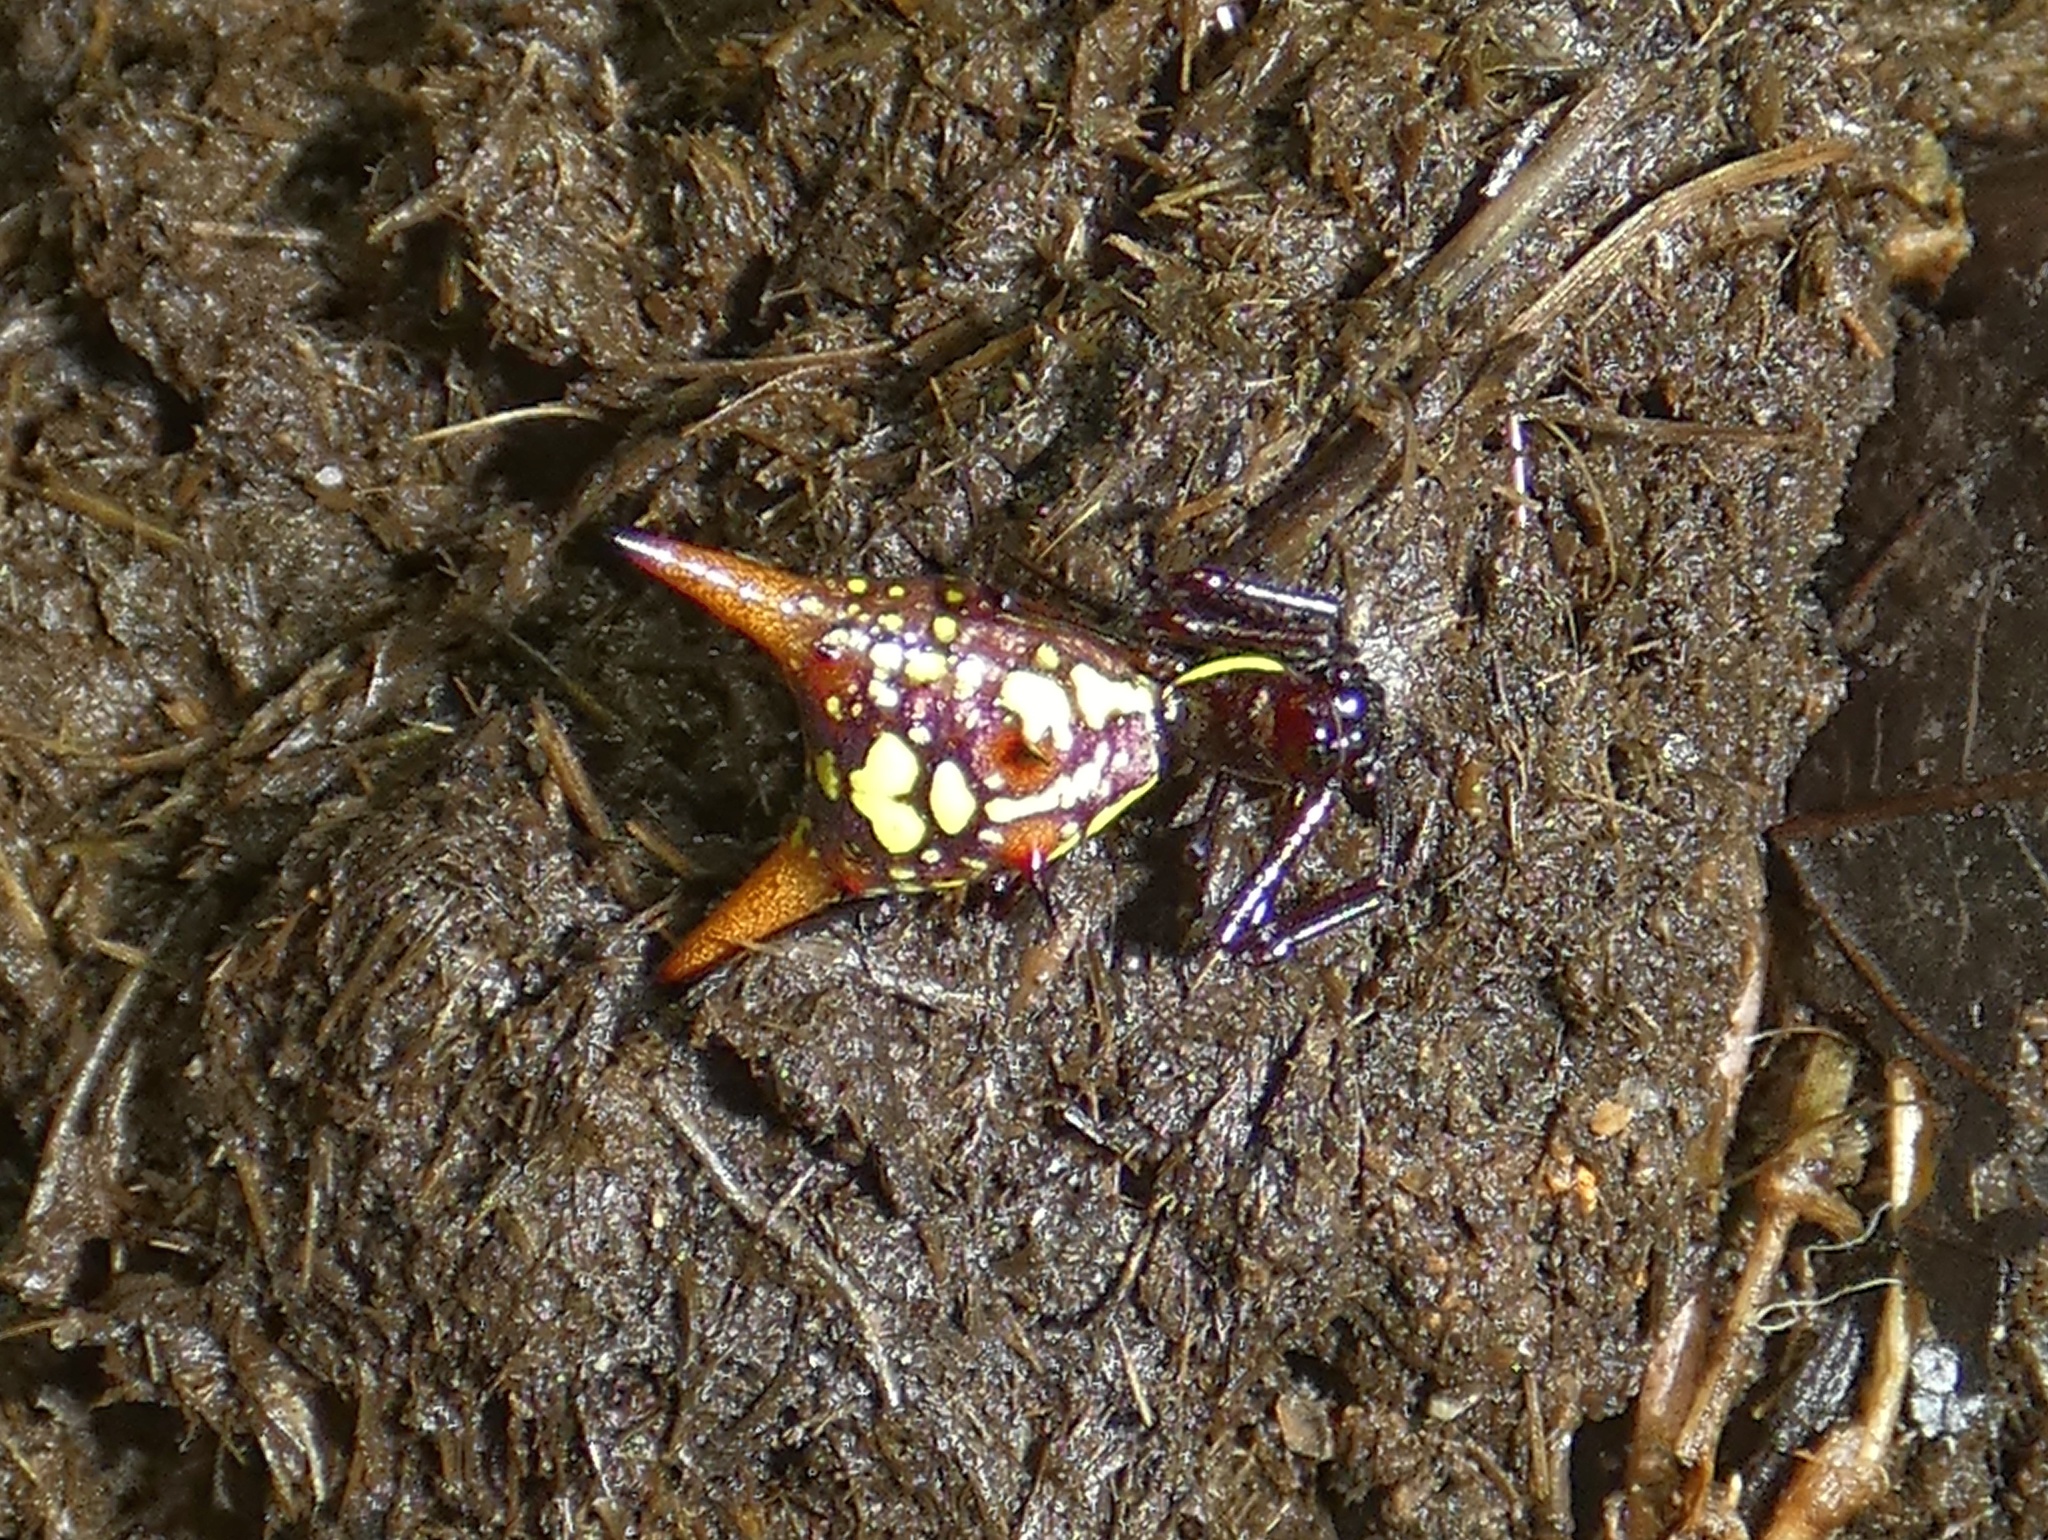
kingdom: Animalia
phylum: Arthropoda
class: Arachnida
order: Araneae
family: Araneidae
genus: Micrathena
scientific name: Micrathena sexspinosa
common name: Orb weavers
